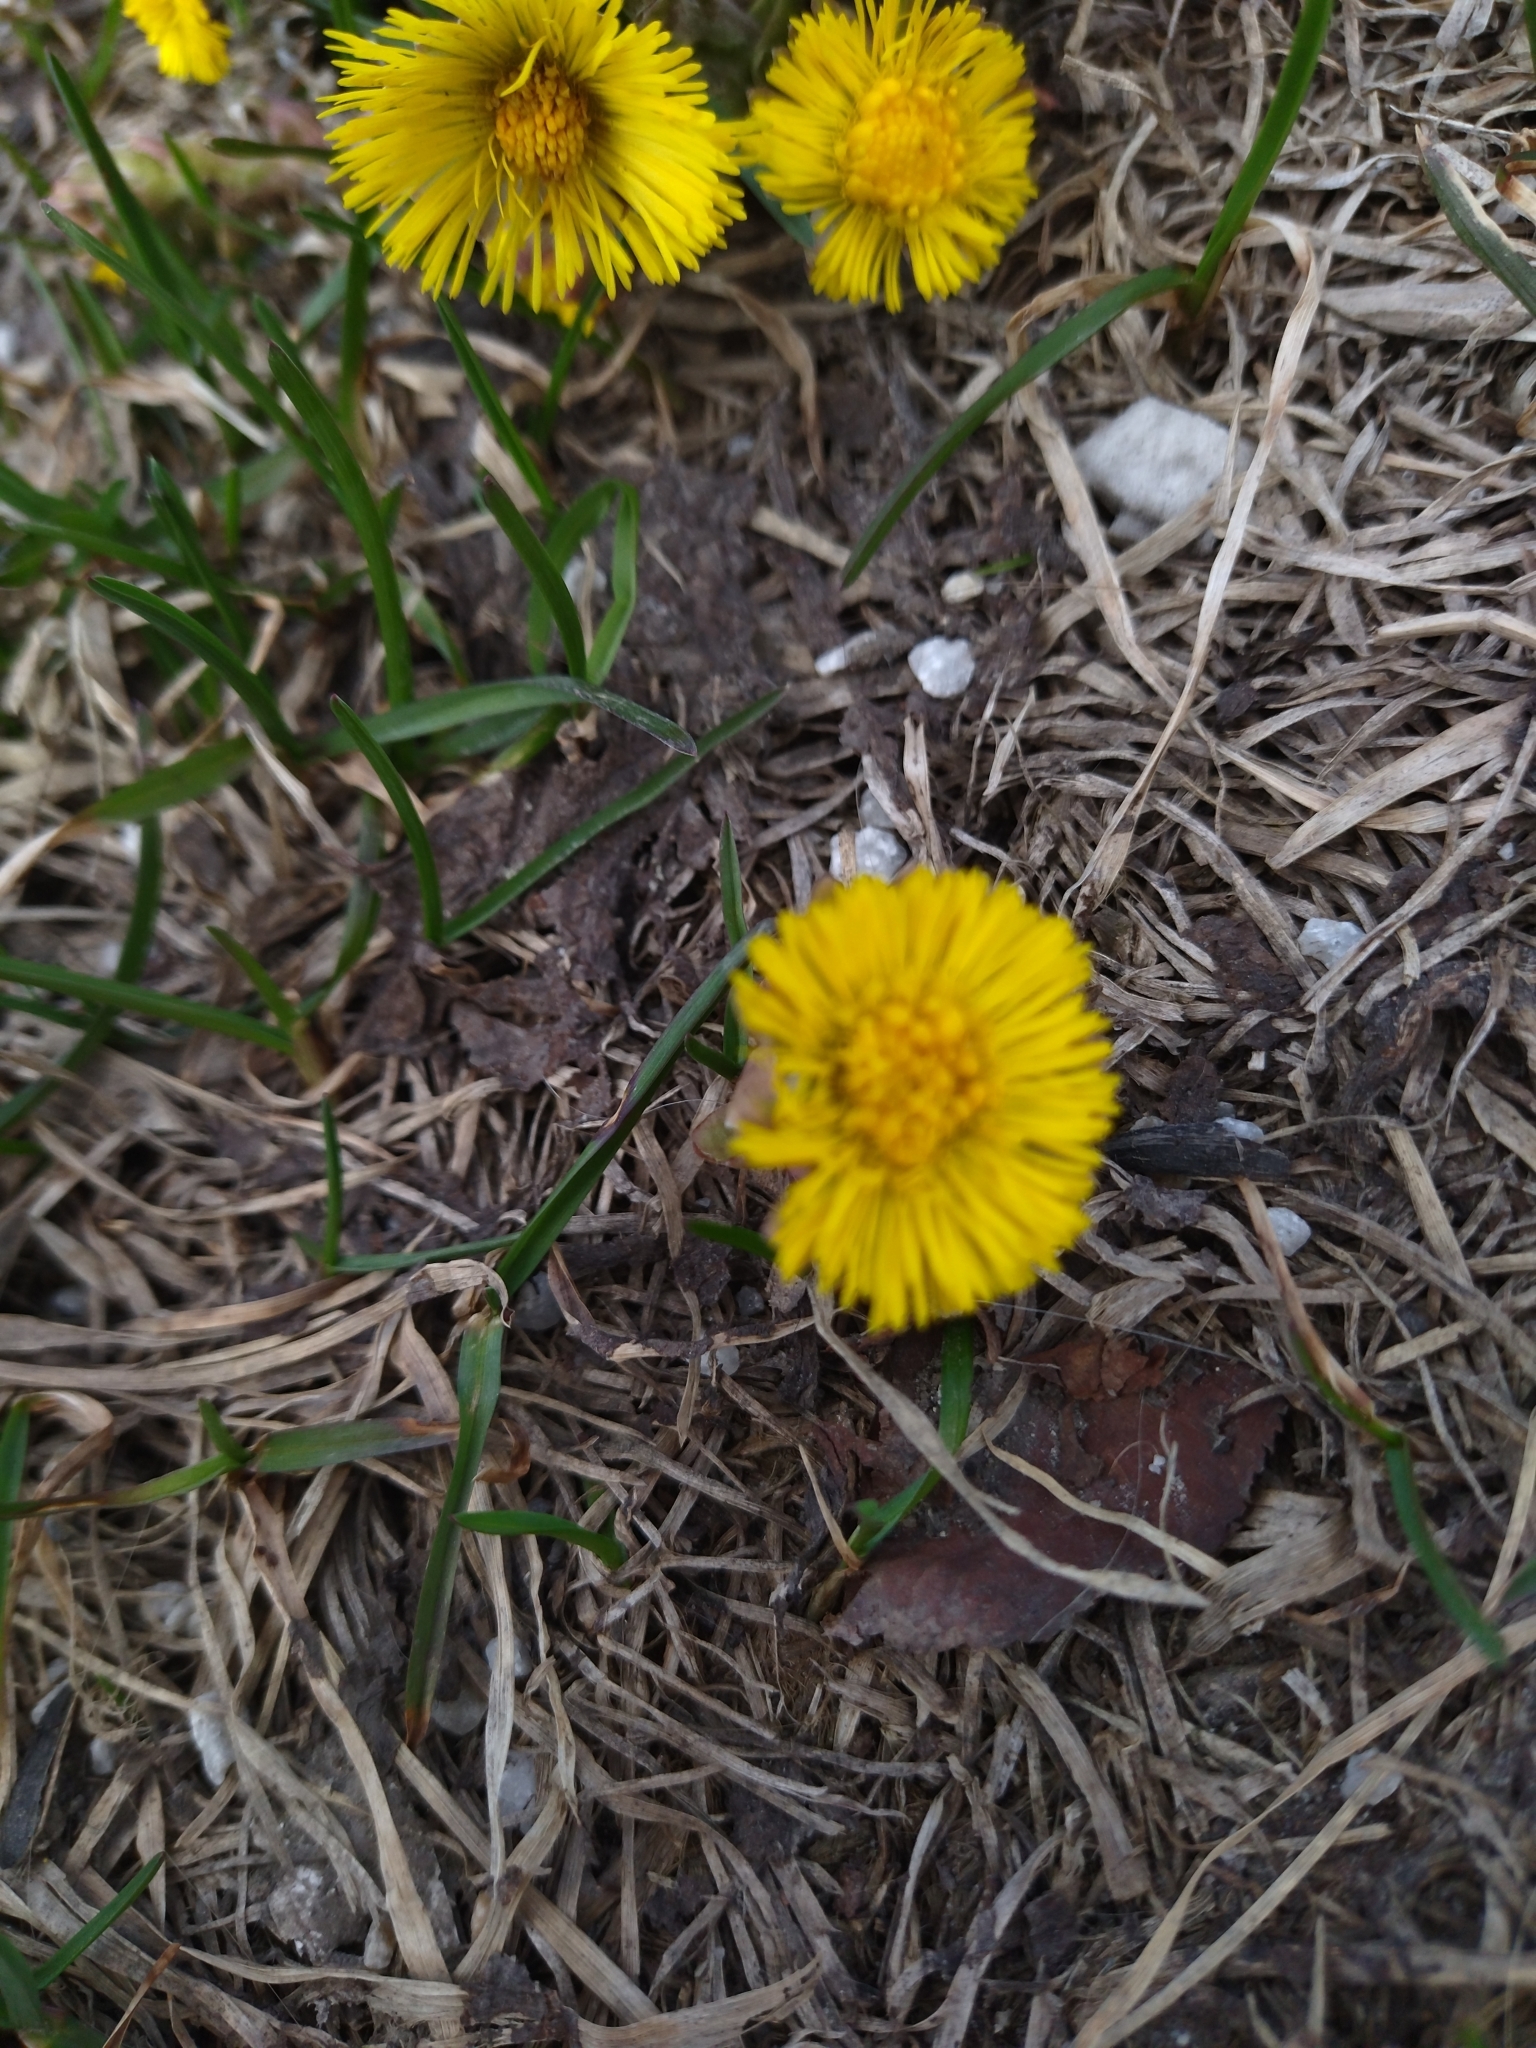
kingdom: Plantae
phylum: Tracheophyta
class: Magnoliopsida
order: Asterales
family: Asteraceae
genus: Tussilago
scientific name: Tussilago farfara
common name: Coltsfoot
